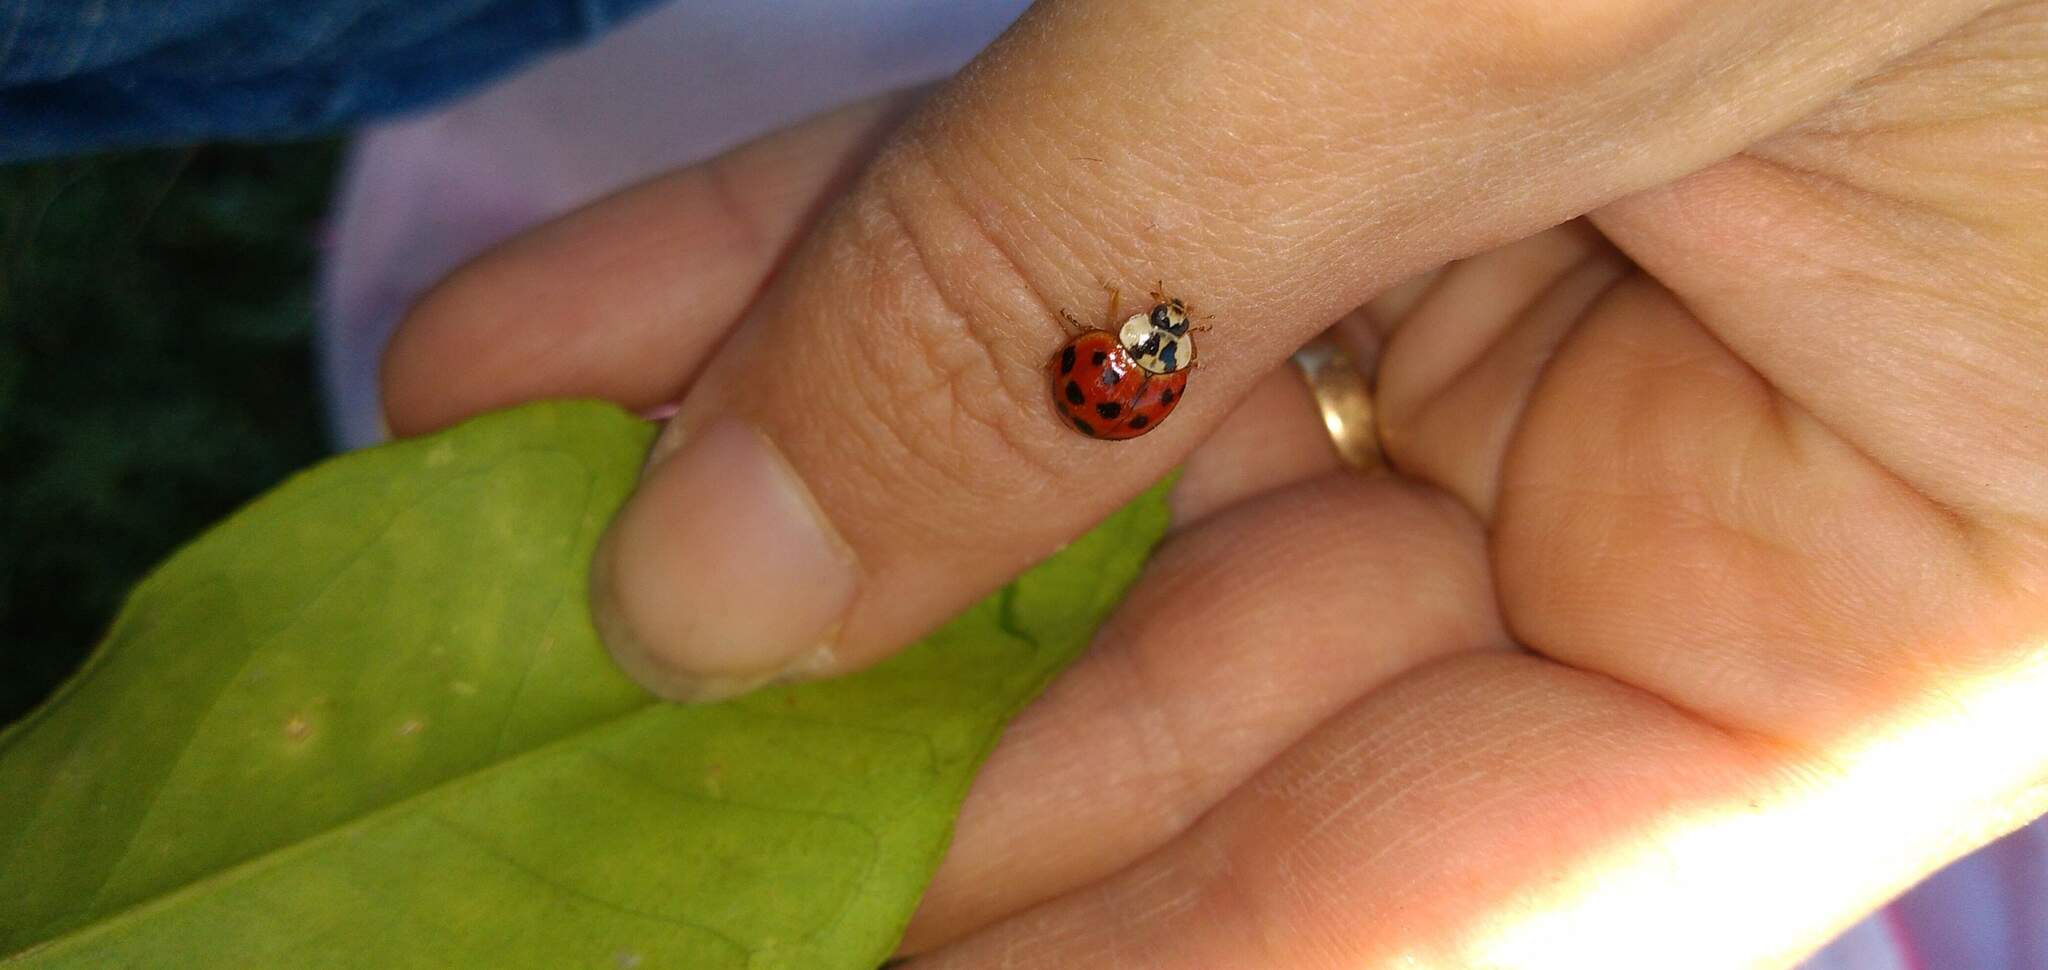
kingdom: Animalia
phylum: Arthropoda
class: Insecta
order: Coleoptera
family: Coccinellidae
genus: Harmonia
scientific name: Harmonia axyridis
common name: Harlequin ladybird
